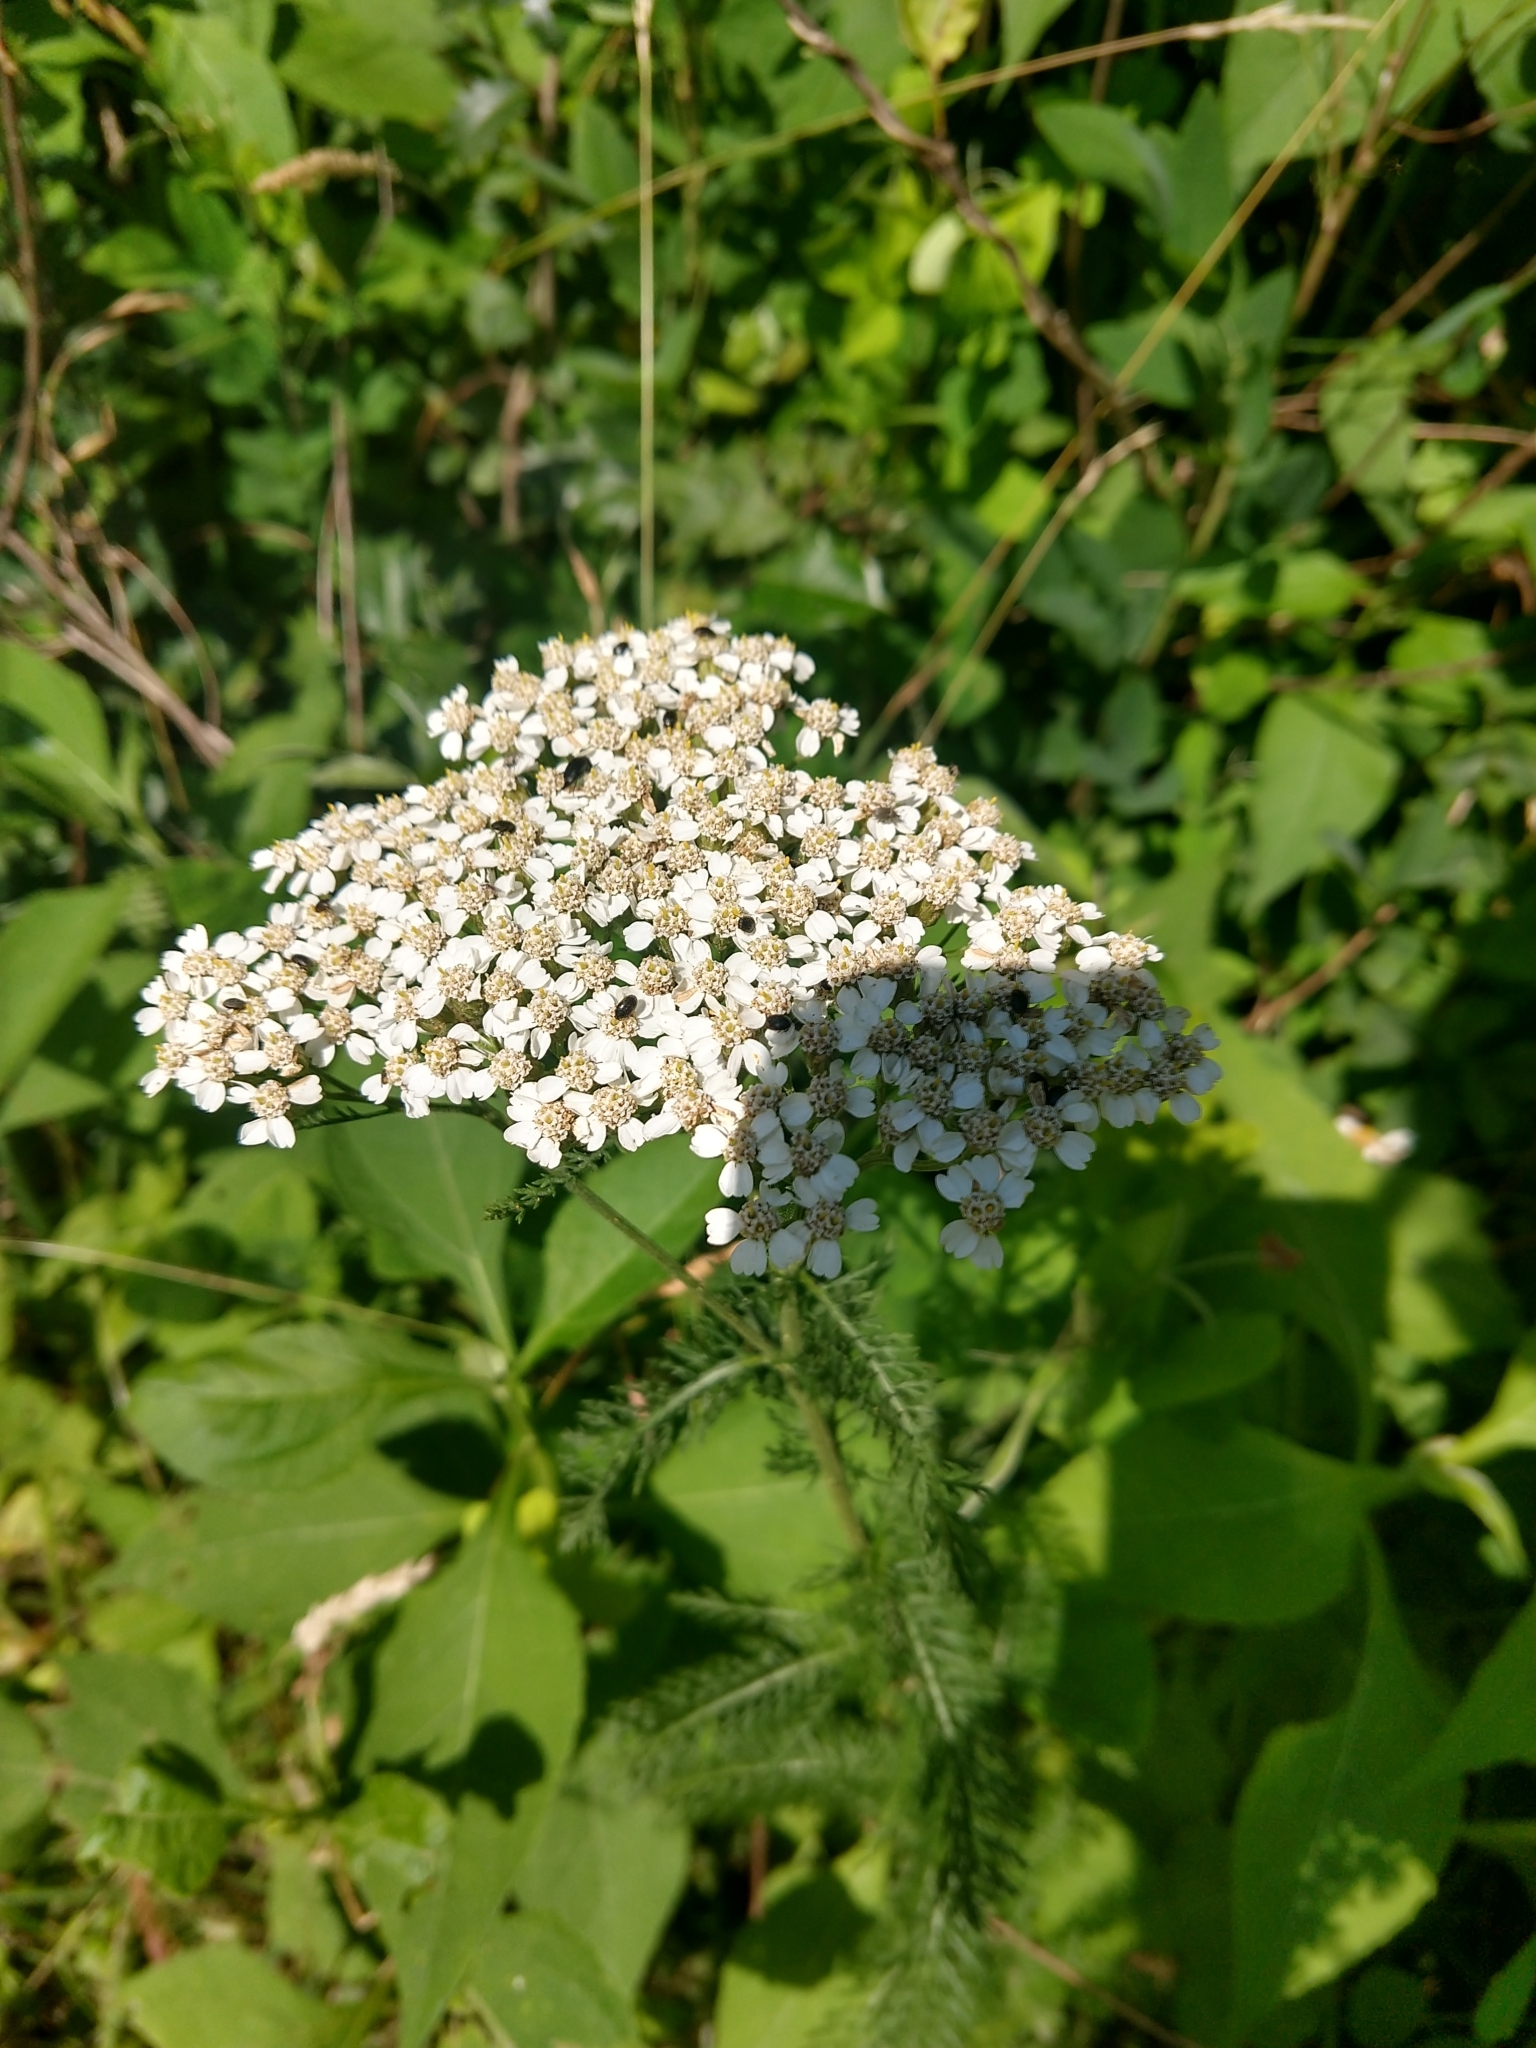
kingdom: Plantae
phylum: Tracheophyta
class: Magnoliopsida
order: Asterales
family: Asteraceae
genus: Achillea
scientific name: Achillea millefolium
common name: Yarrow
